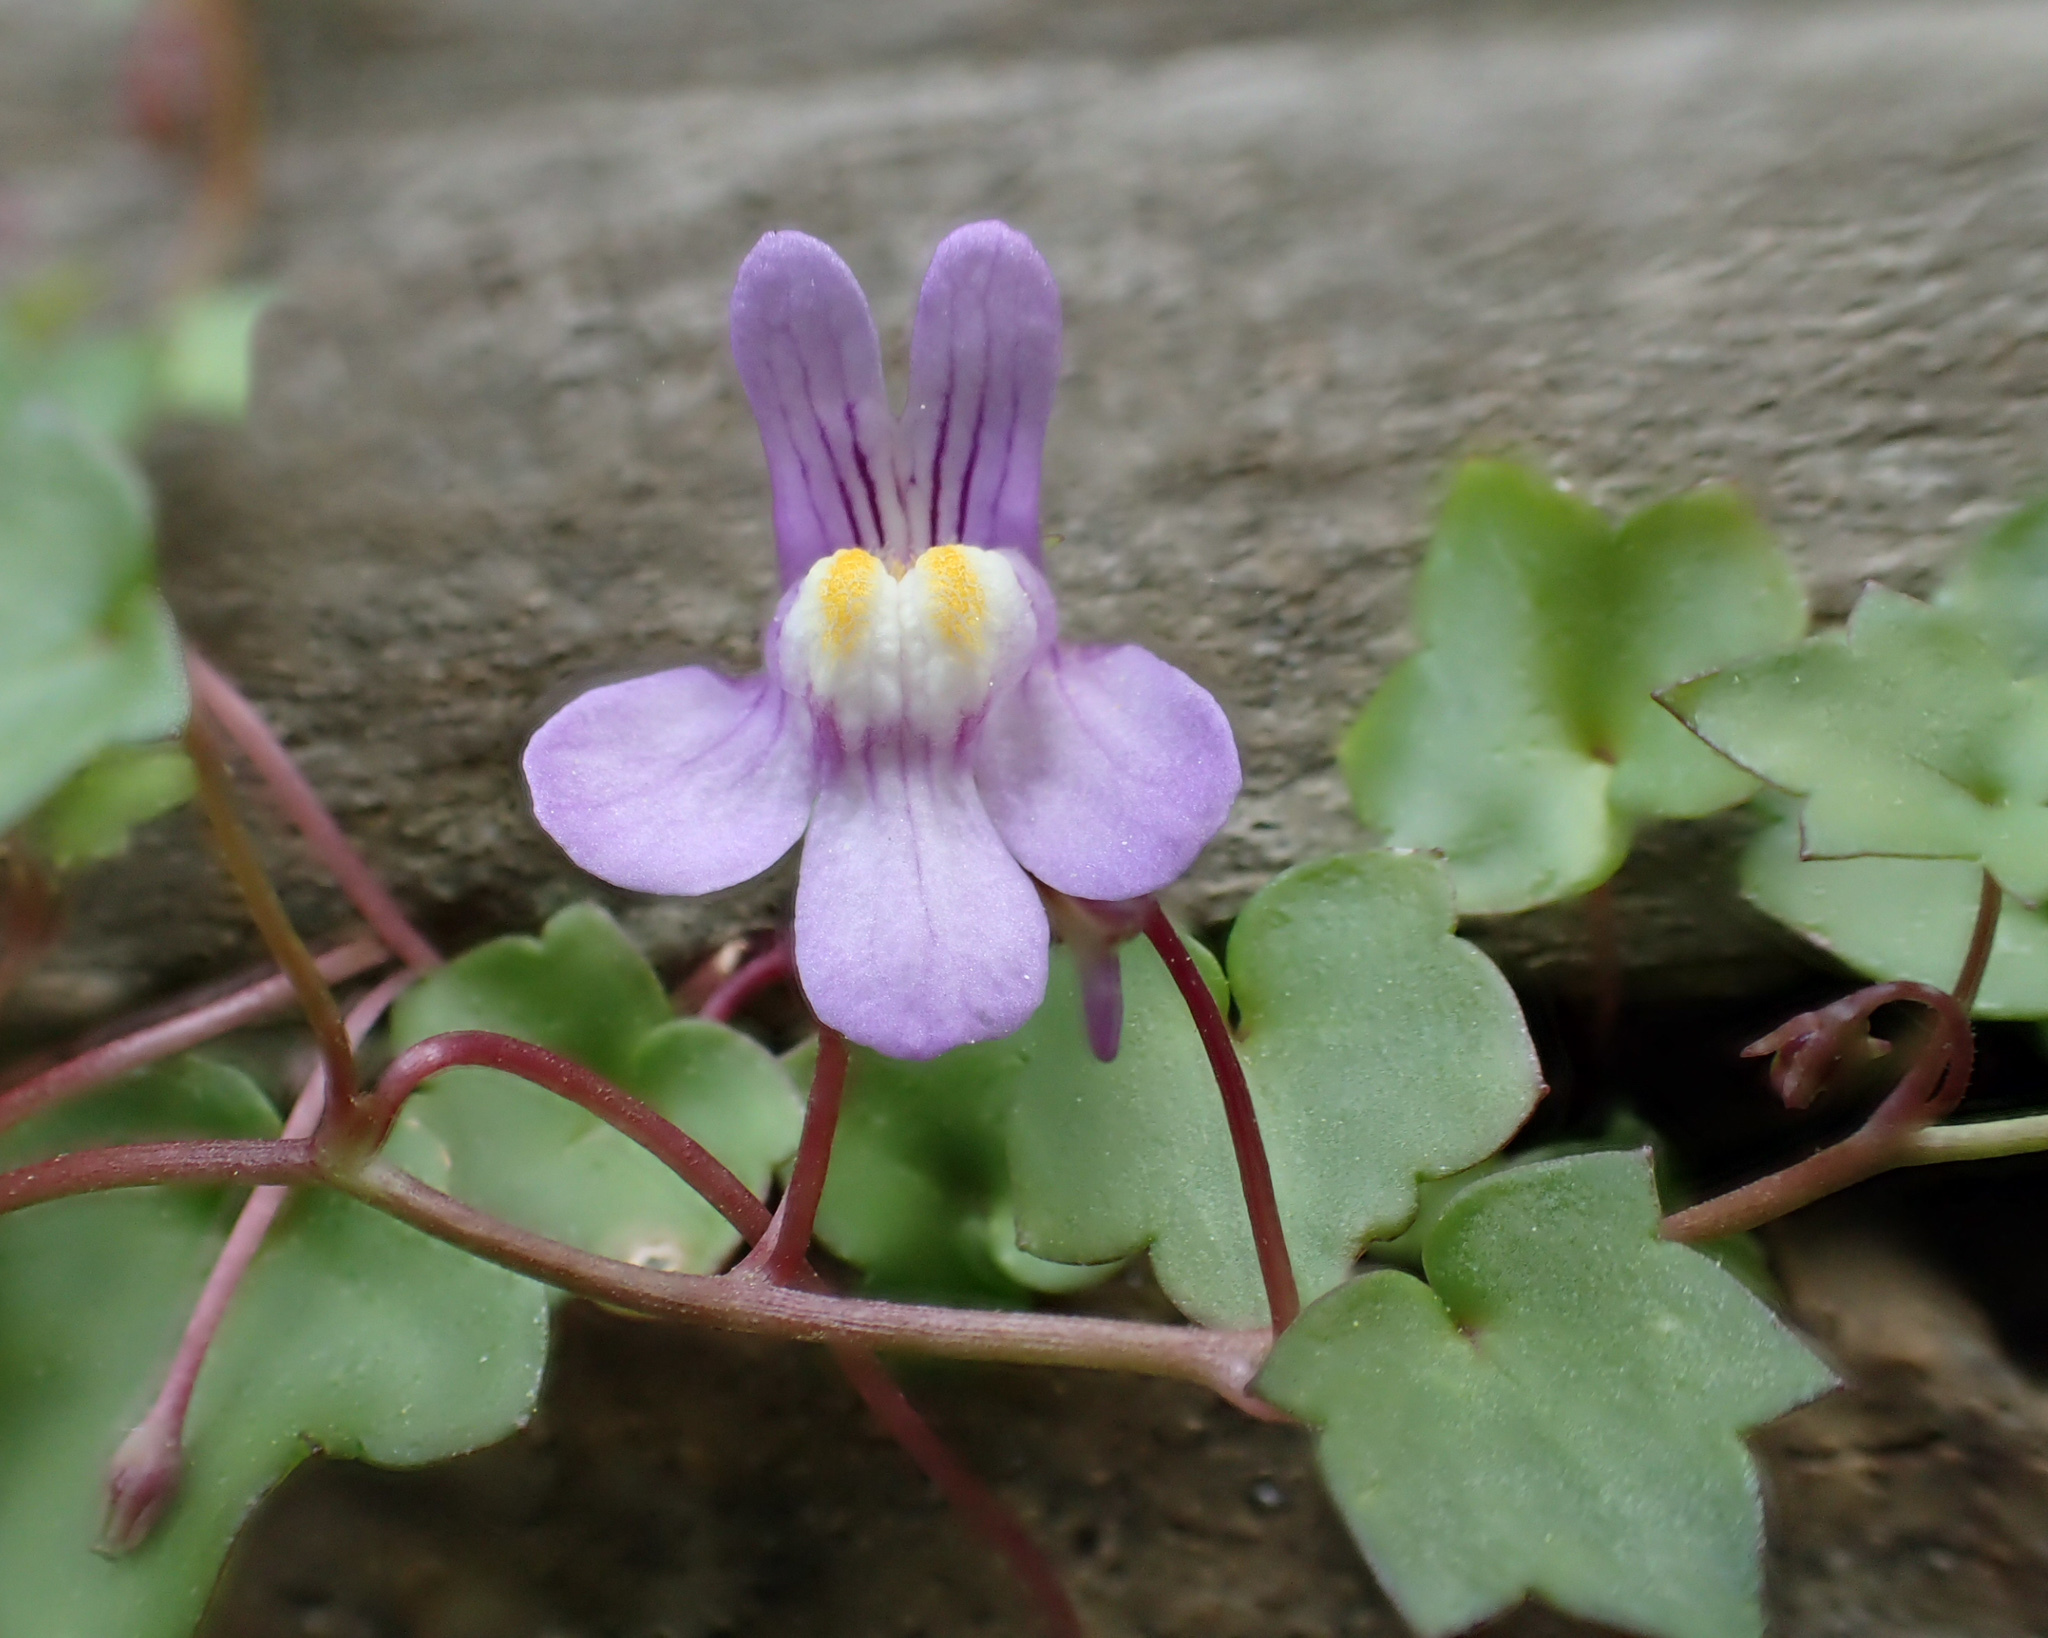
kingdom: Plantae
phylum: Tracheophyta
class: Magnoliopsida
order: Lamiales
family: Plantaginaceae
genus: Cymbalaria
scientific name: Cymbalaria muralis
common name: Ivy-leaved toadflax
